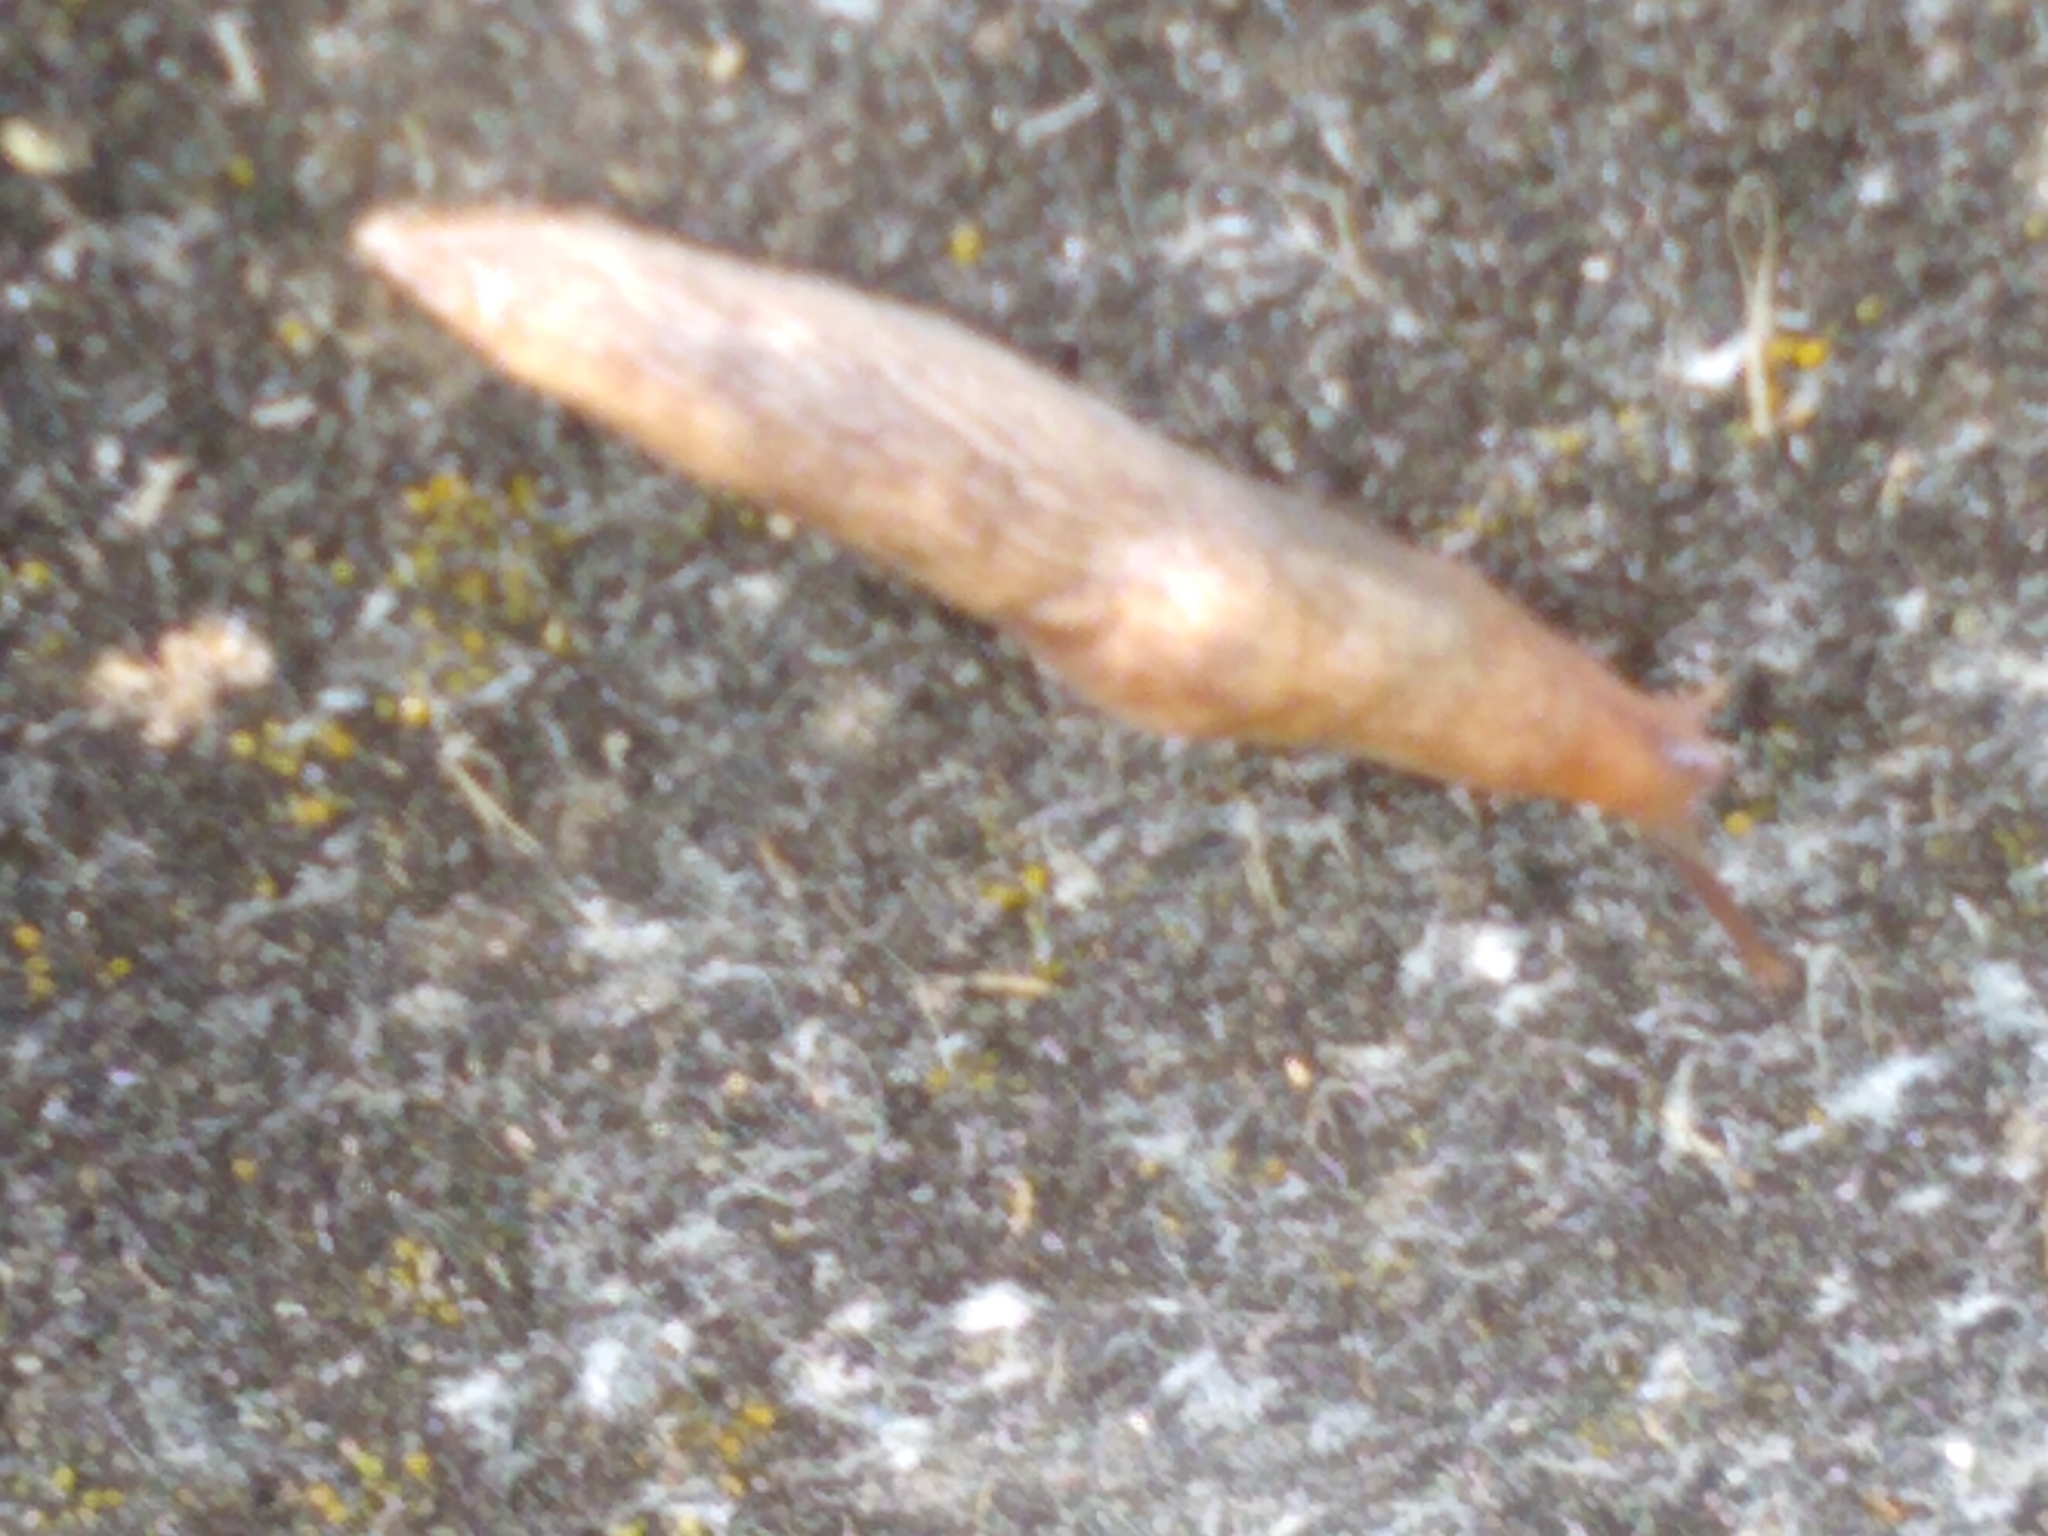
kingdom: Animalia
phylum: Mollusca
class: Gastropoda
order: Stylommatophora
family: Agriolimacidae
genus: Deroceras
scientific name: Deroceras reticulatum
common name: Gray field slug
